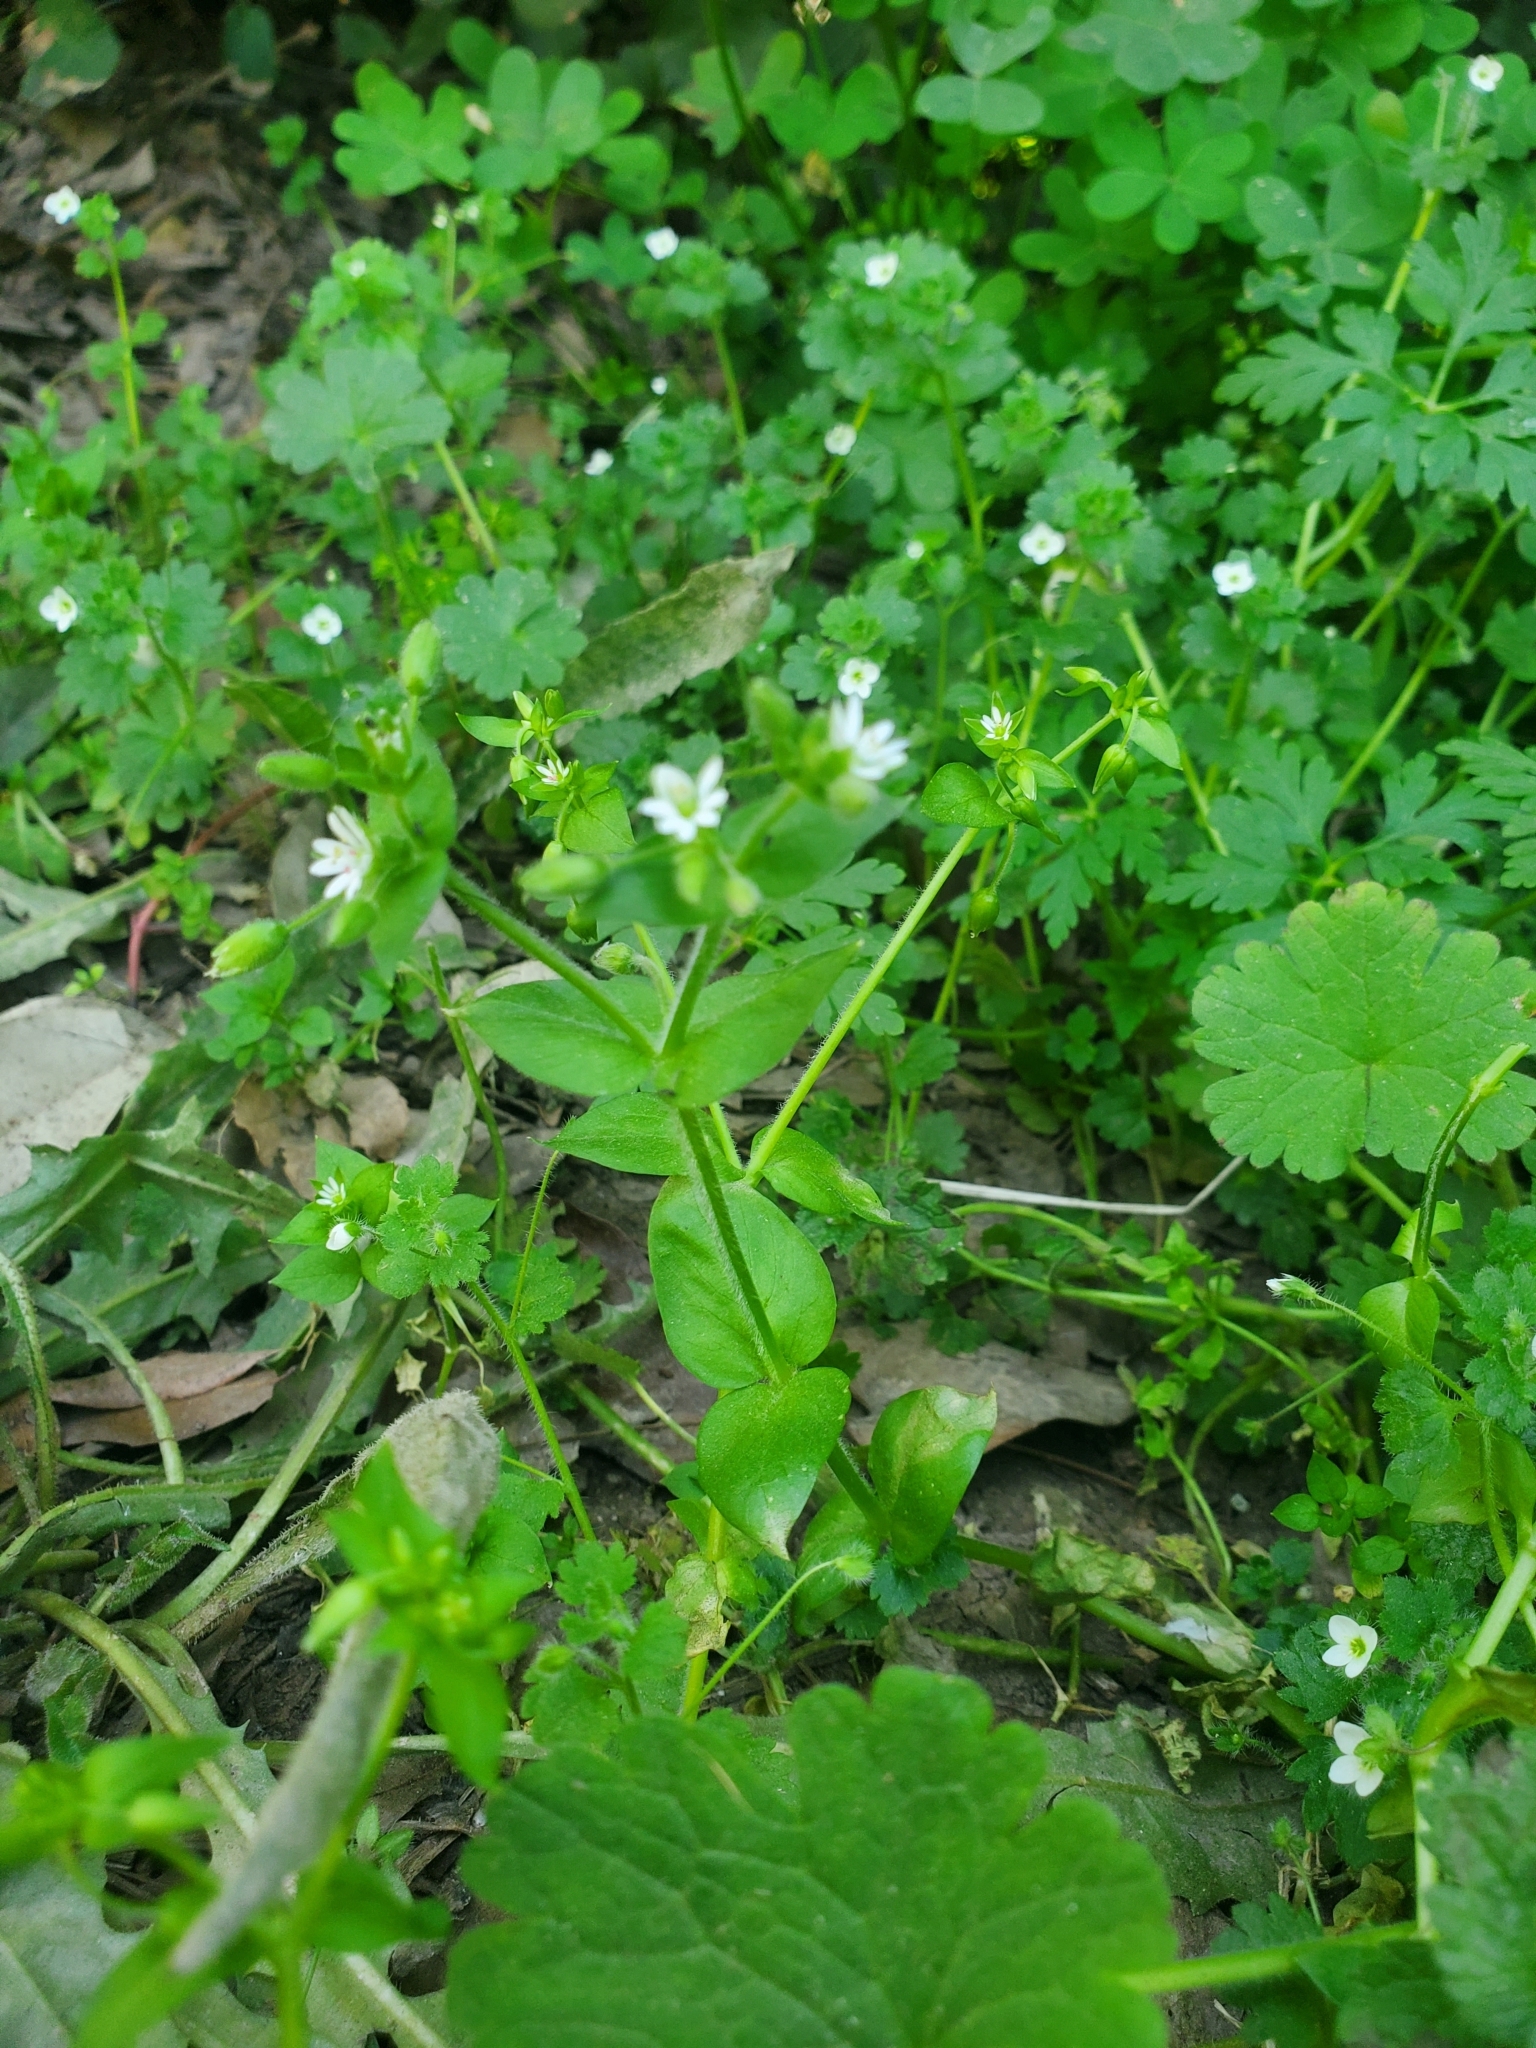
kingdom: Plantae
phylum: Tracheophyta
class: Magnoliopsida
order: Caryophyllales
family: Caryophyllaceae
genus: Stellaria
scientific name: Stellaria media
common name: Common chickweed
